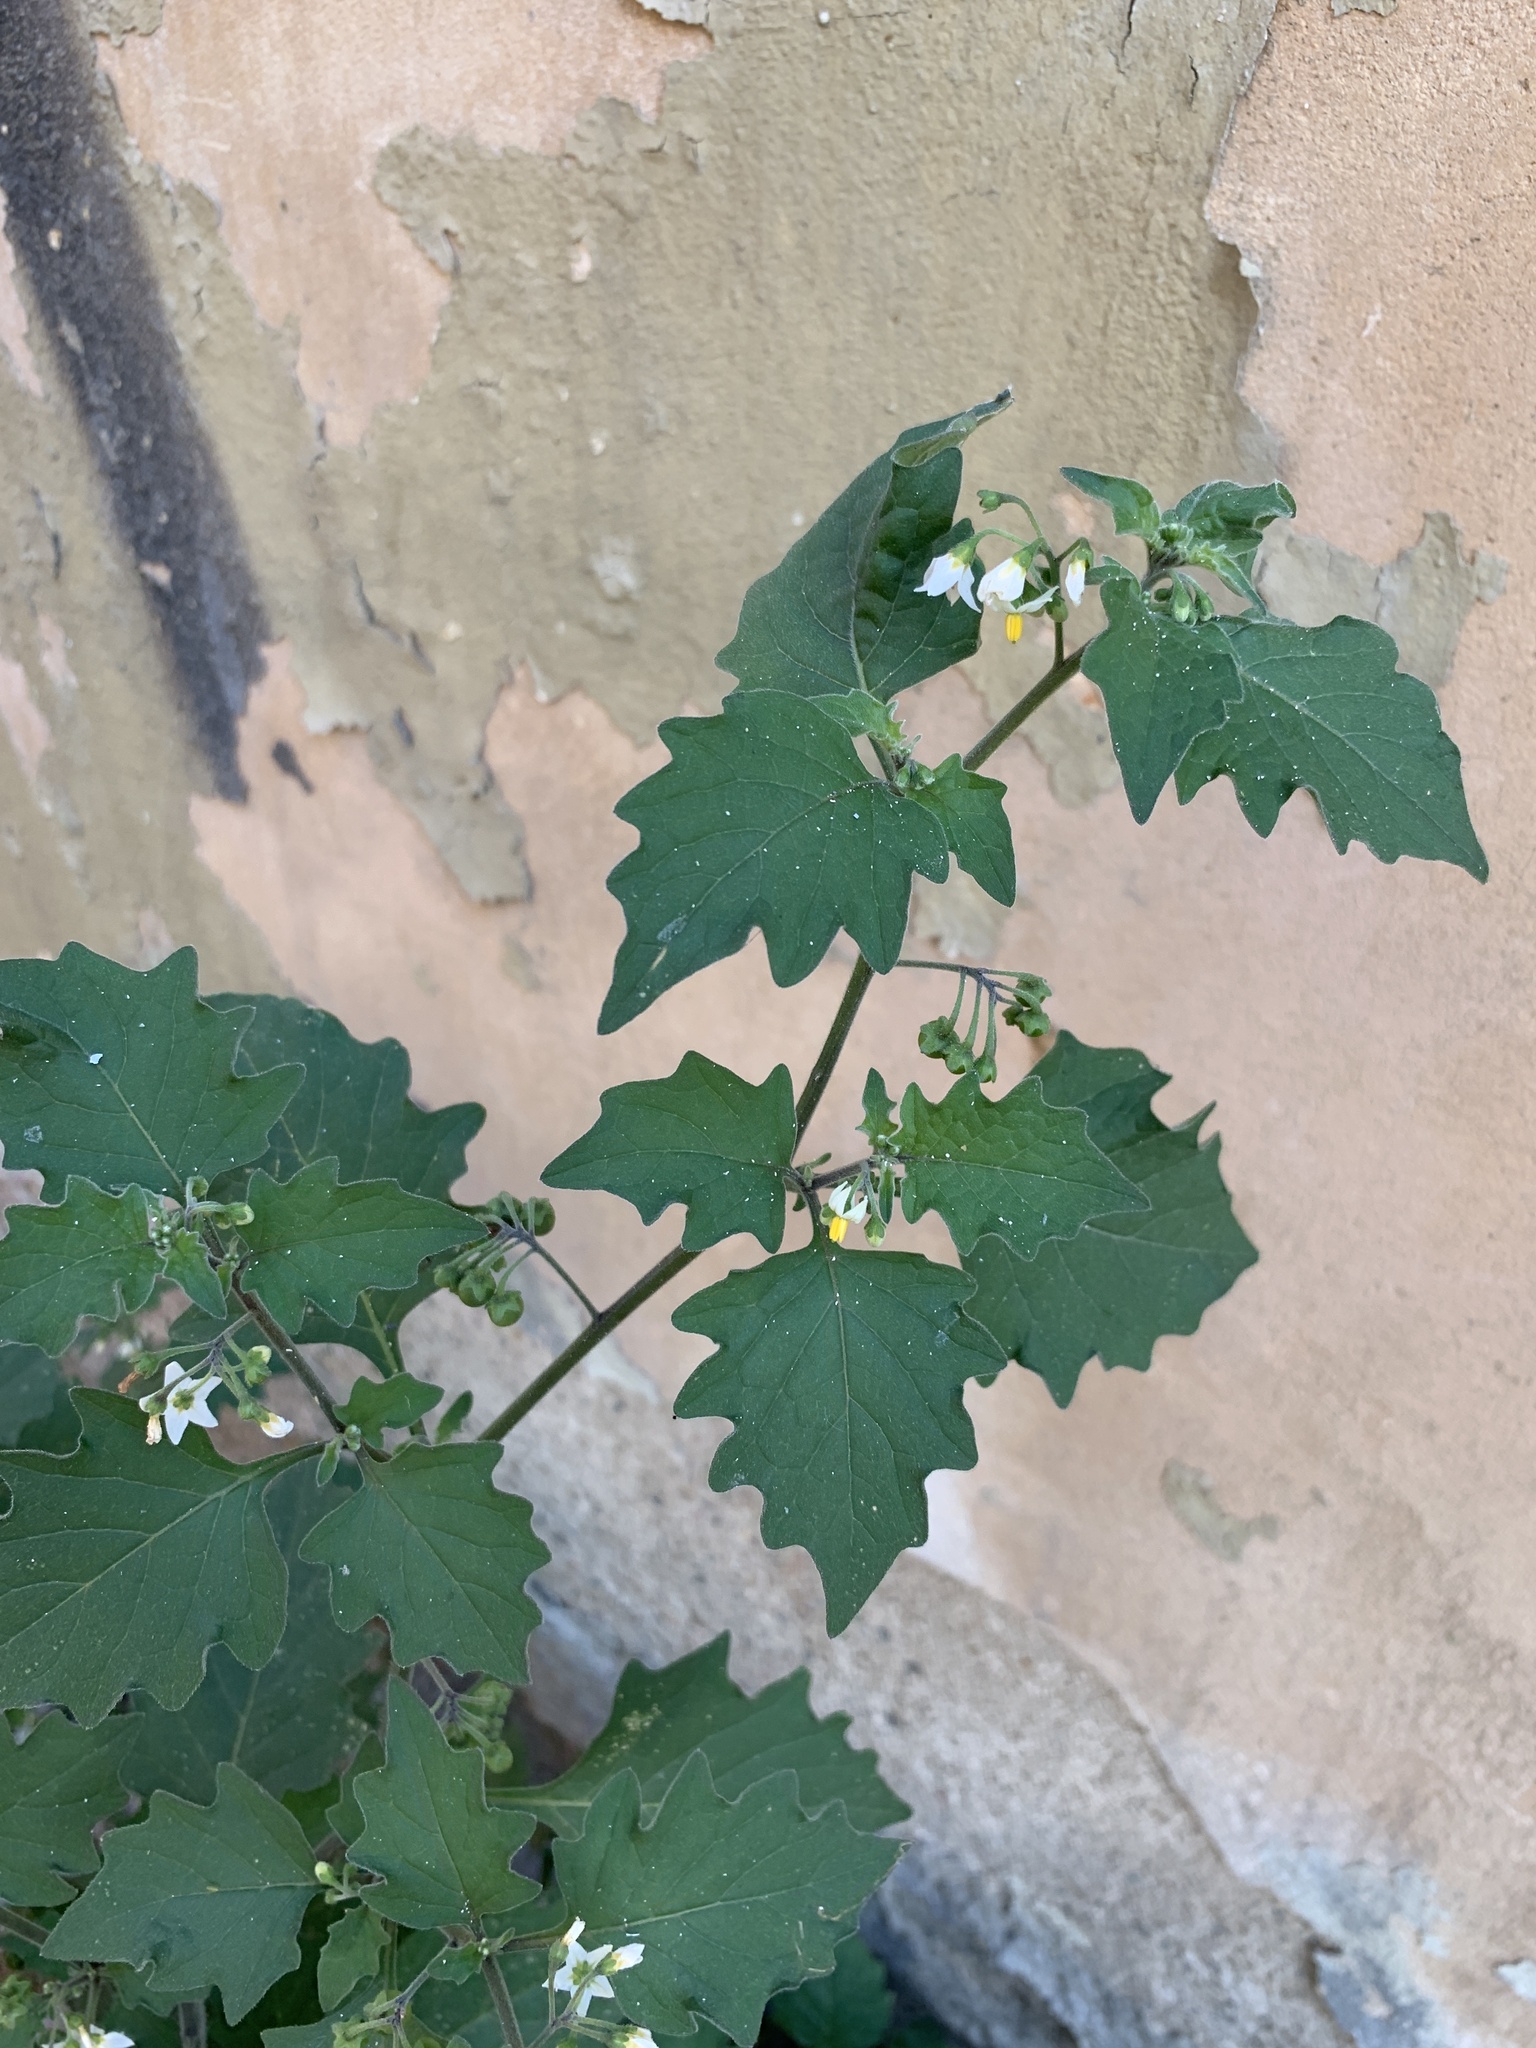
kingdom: Plantae
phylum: Tracheophyta
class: Magnoliopsida
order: Solanales
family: Solanaceae
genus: Solanum
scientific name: Solanum nigrum
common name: Black nightshade
